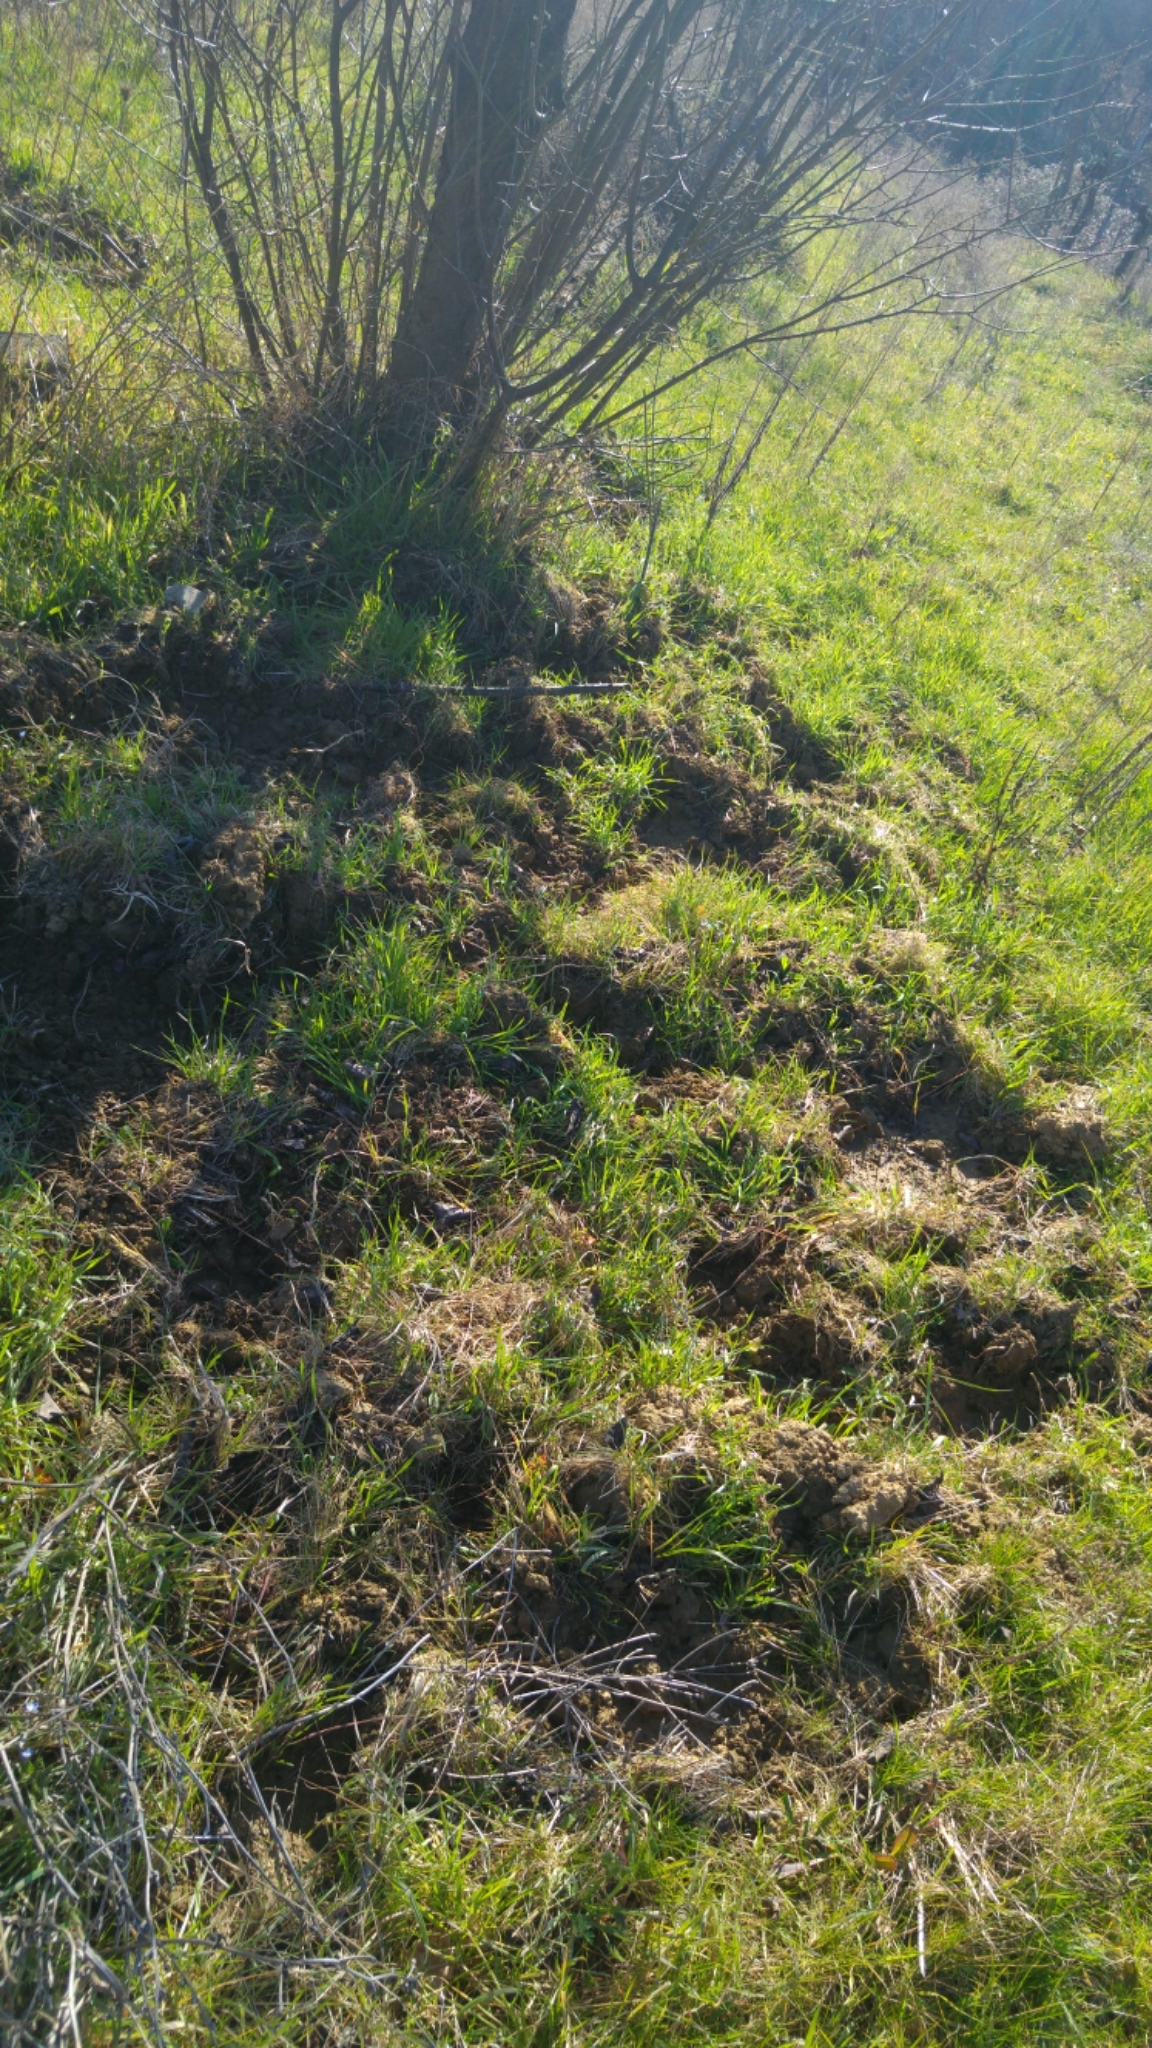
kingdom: Animalia
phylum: Chordata
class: Mammalia
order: Artiodactyla
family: Suidae
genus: Sus
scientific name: Sus scrofa
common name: Wild boar
